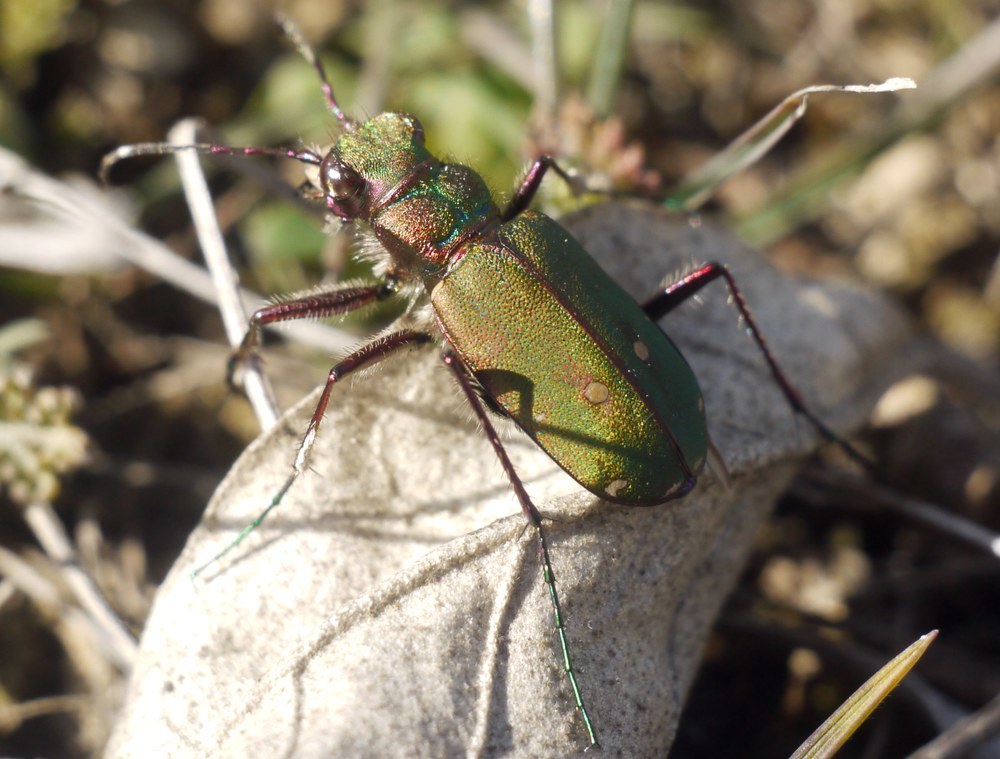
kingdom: Animalia
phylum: Arthropoda
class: Insecta
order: Coleoptera
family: Carabidae
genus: Cicindela
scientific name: Cicindela campestris
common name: Common tiger beetle
